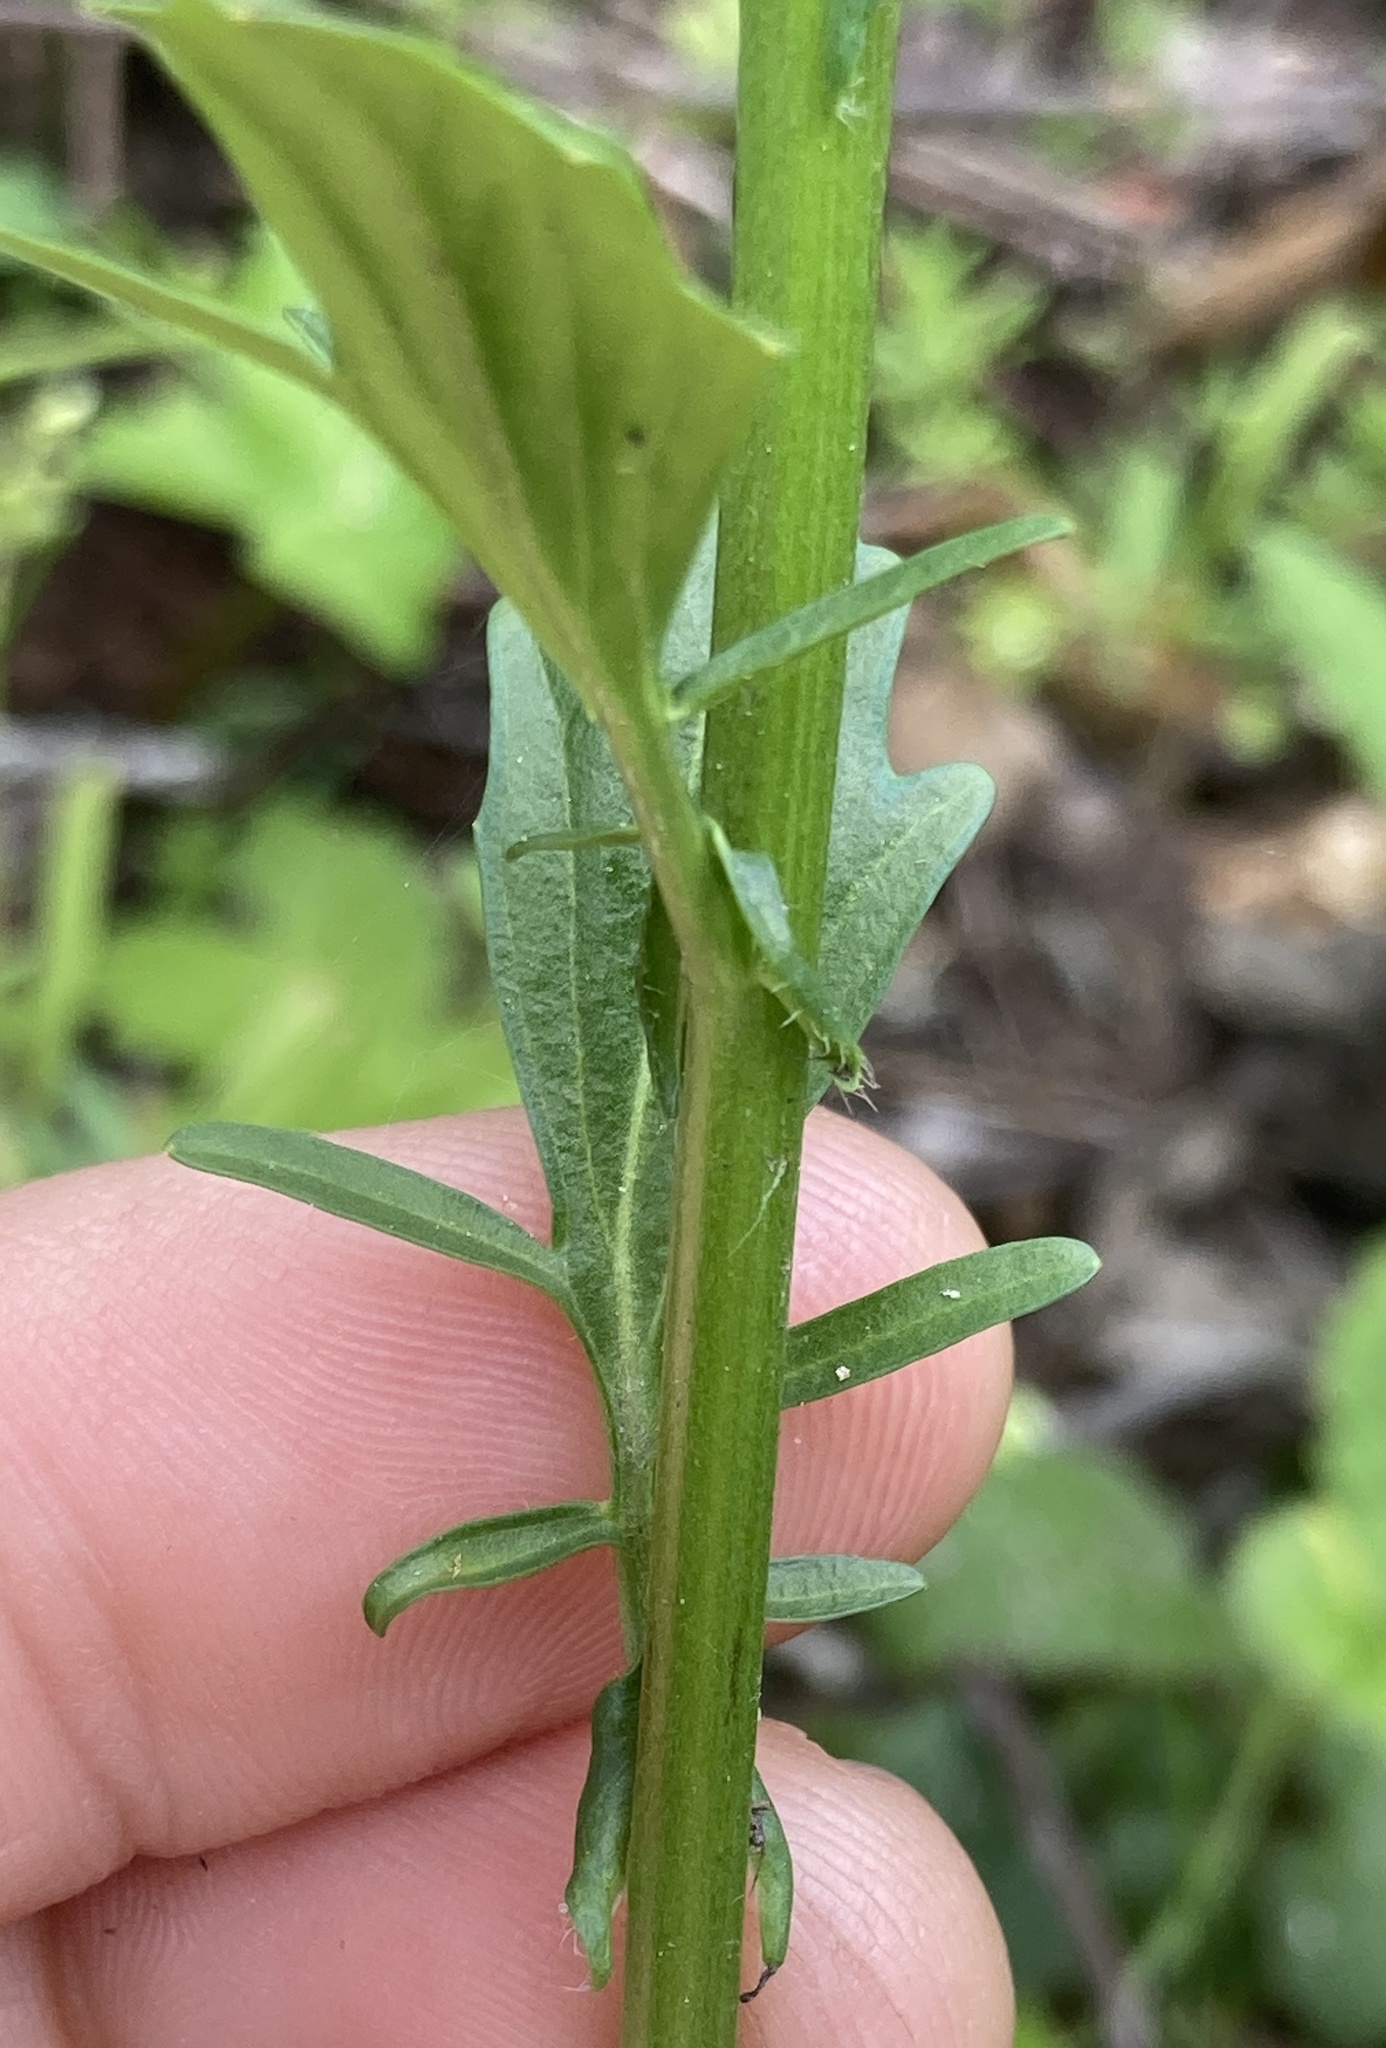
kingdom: Plantae
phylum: Tracheophyta
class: Magnoliopsida
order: Brassicales
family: Brassicaceae
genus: Barbarea
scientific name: Barbarea orthoceras
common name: American wintercress
